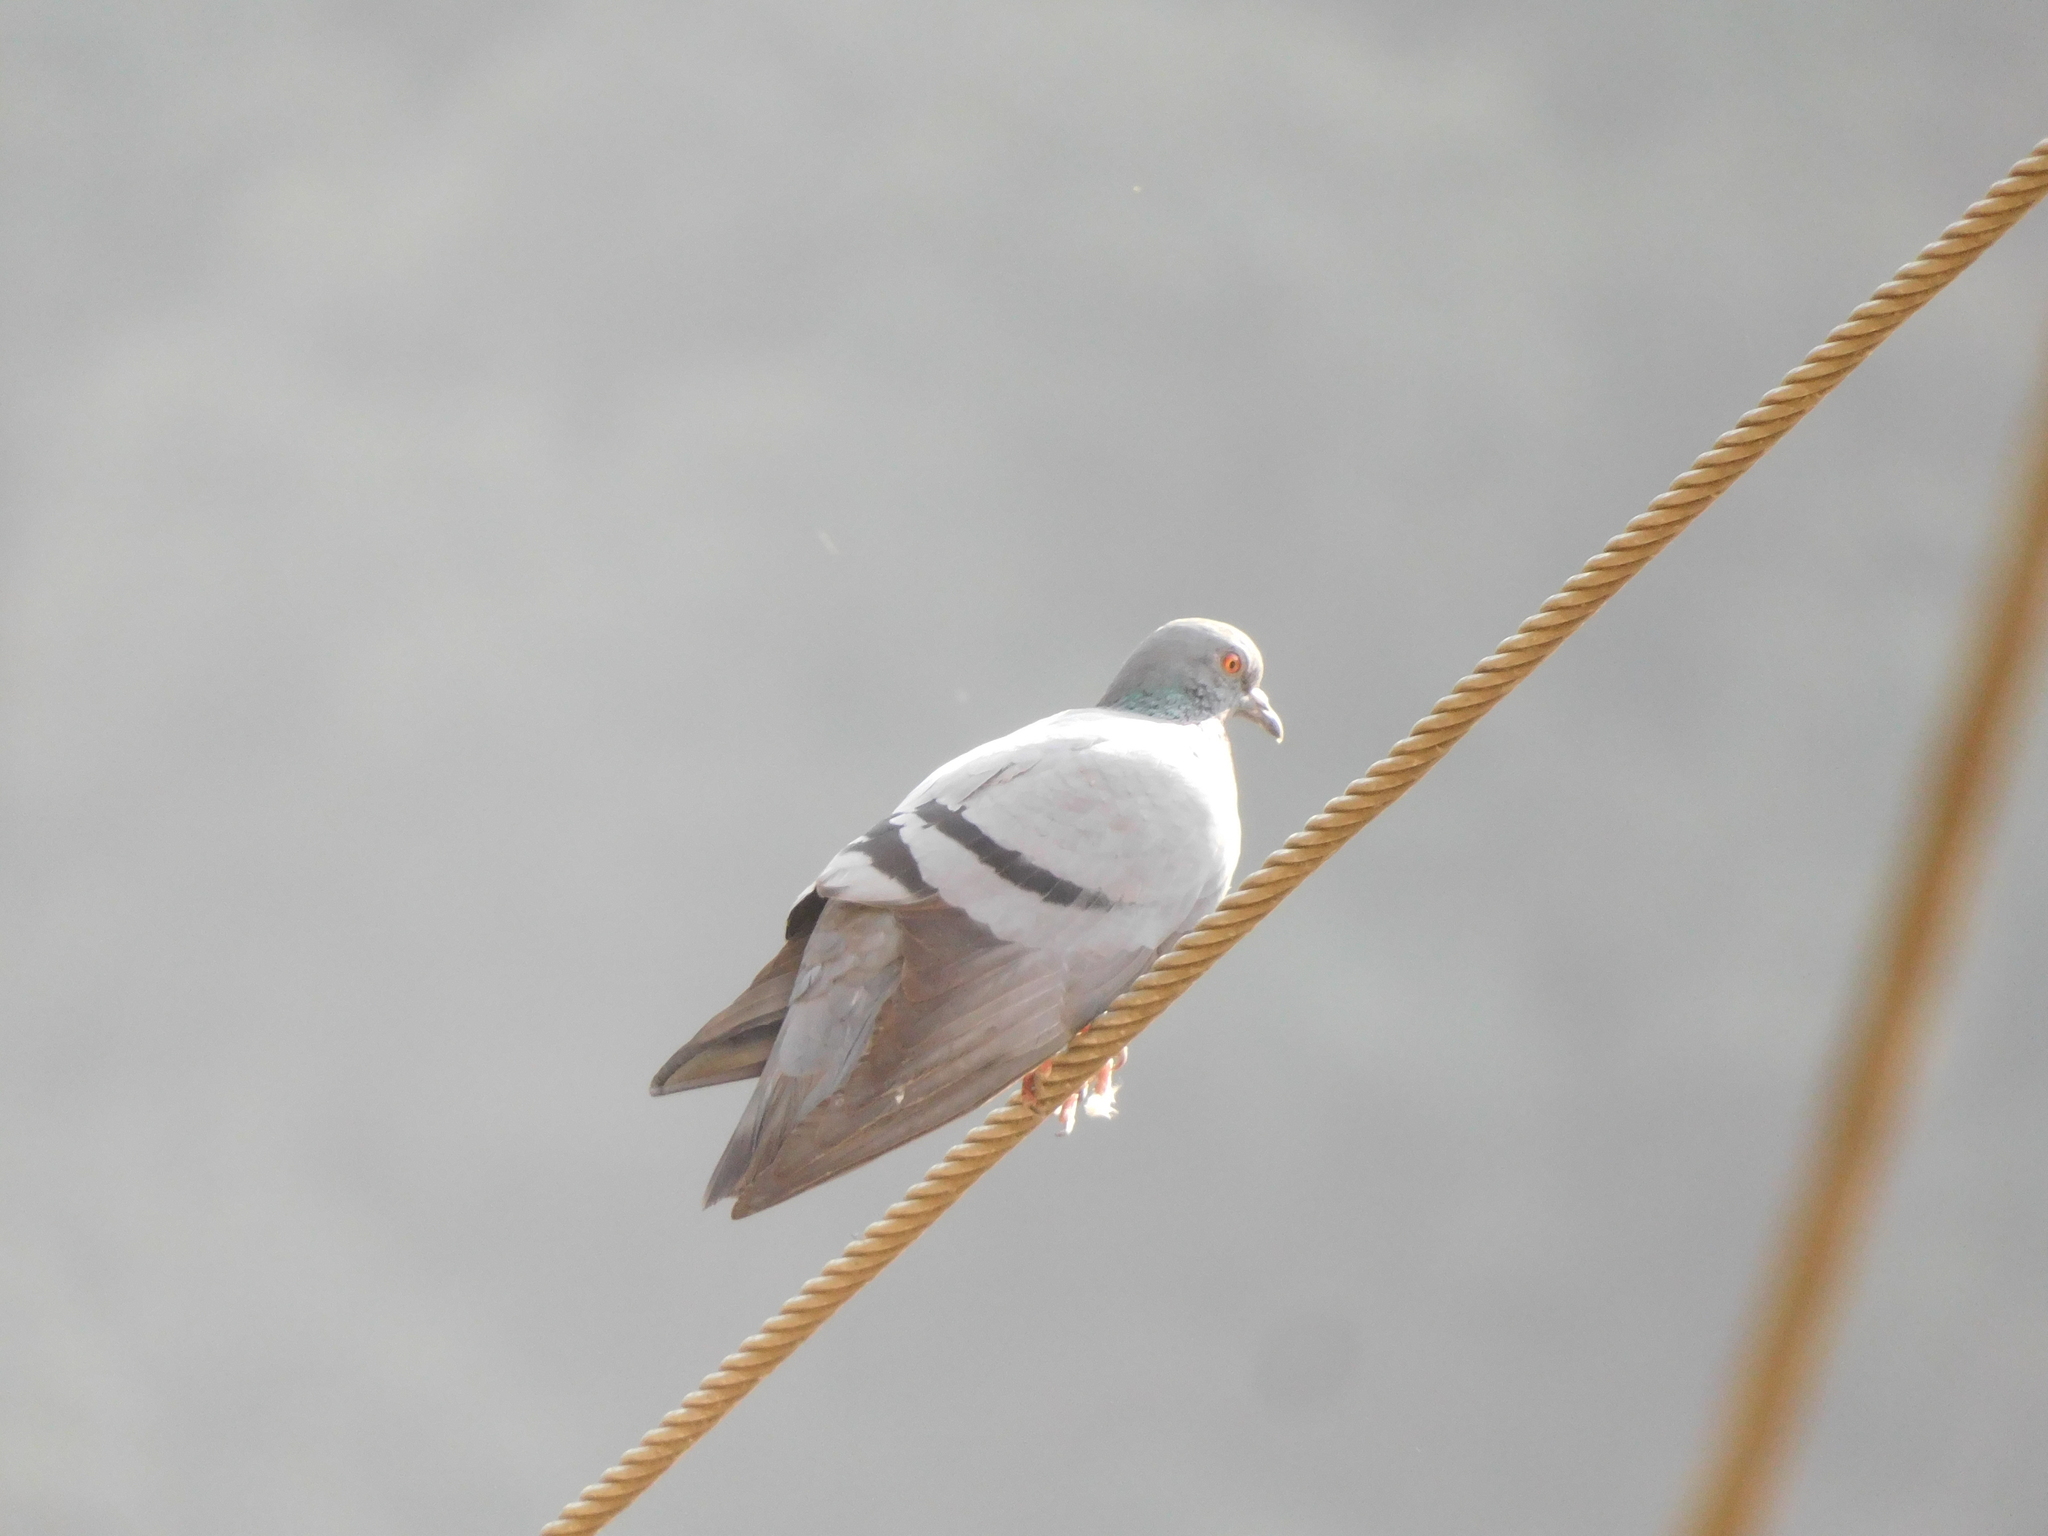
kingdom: Animalia
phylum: Chordata
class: Aves
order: Columbiformes
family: Columbidae
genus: Columba
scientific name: Columba livia
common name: Rock pigeon
